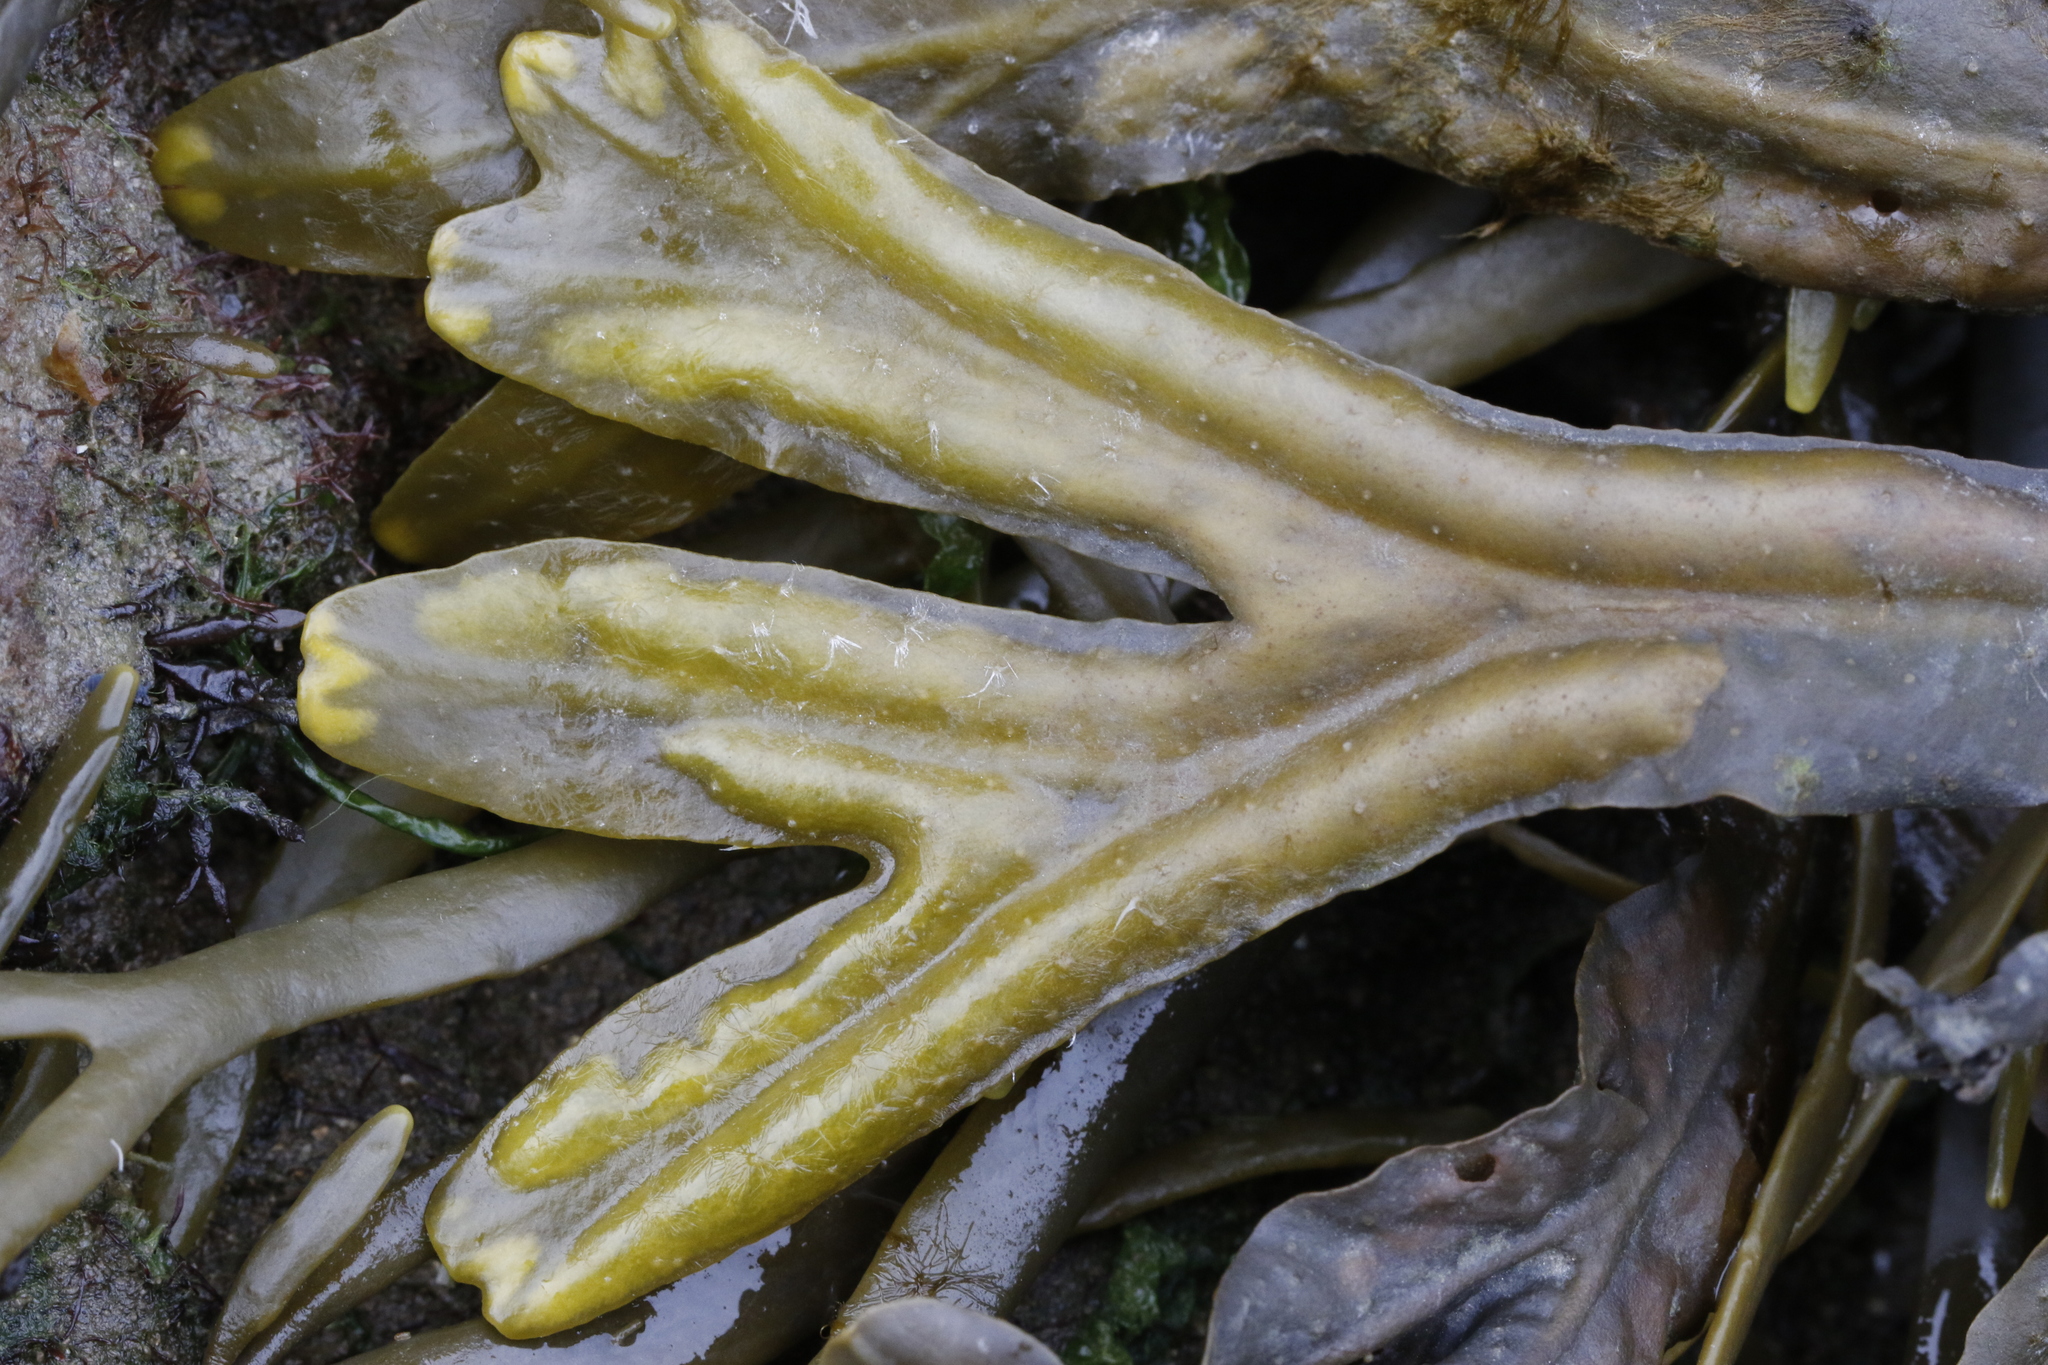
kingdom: Chromista
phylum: Ochrophyta
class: Phaeophyceae
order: Fucales
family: Fucaceae
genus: Fucus
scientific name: Fucus ceranoides
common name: Horned wrack
